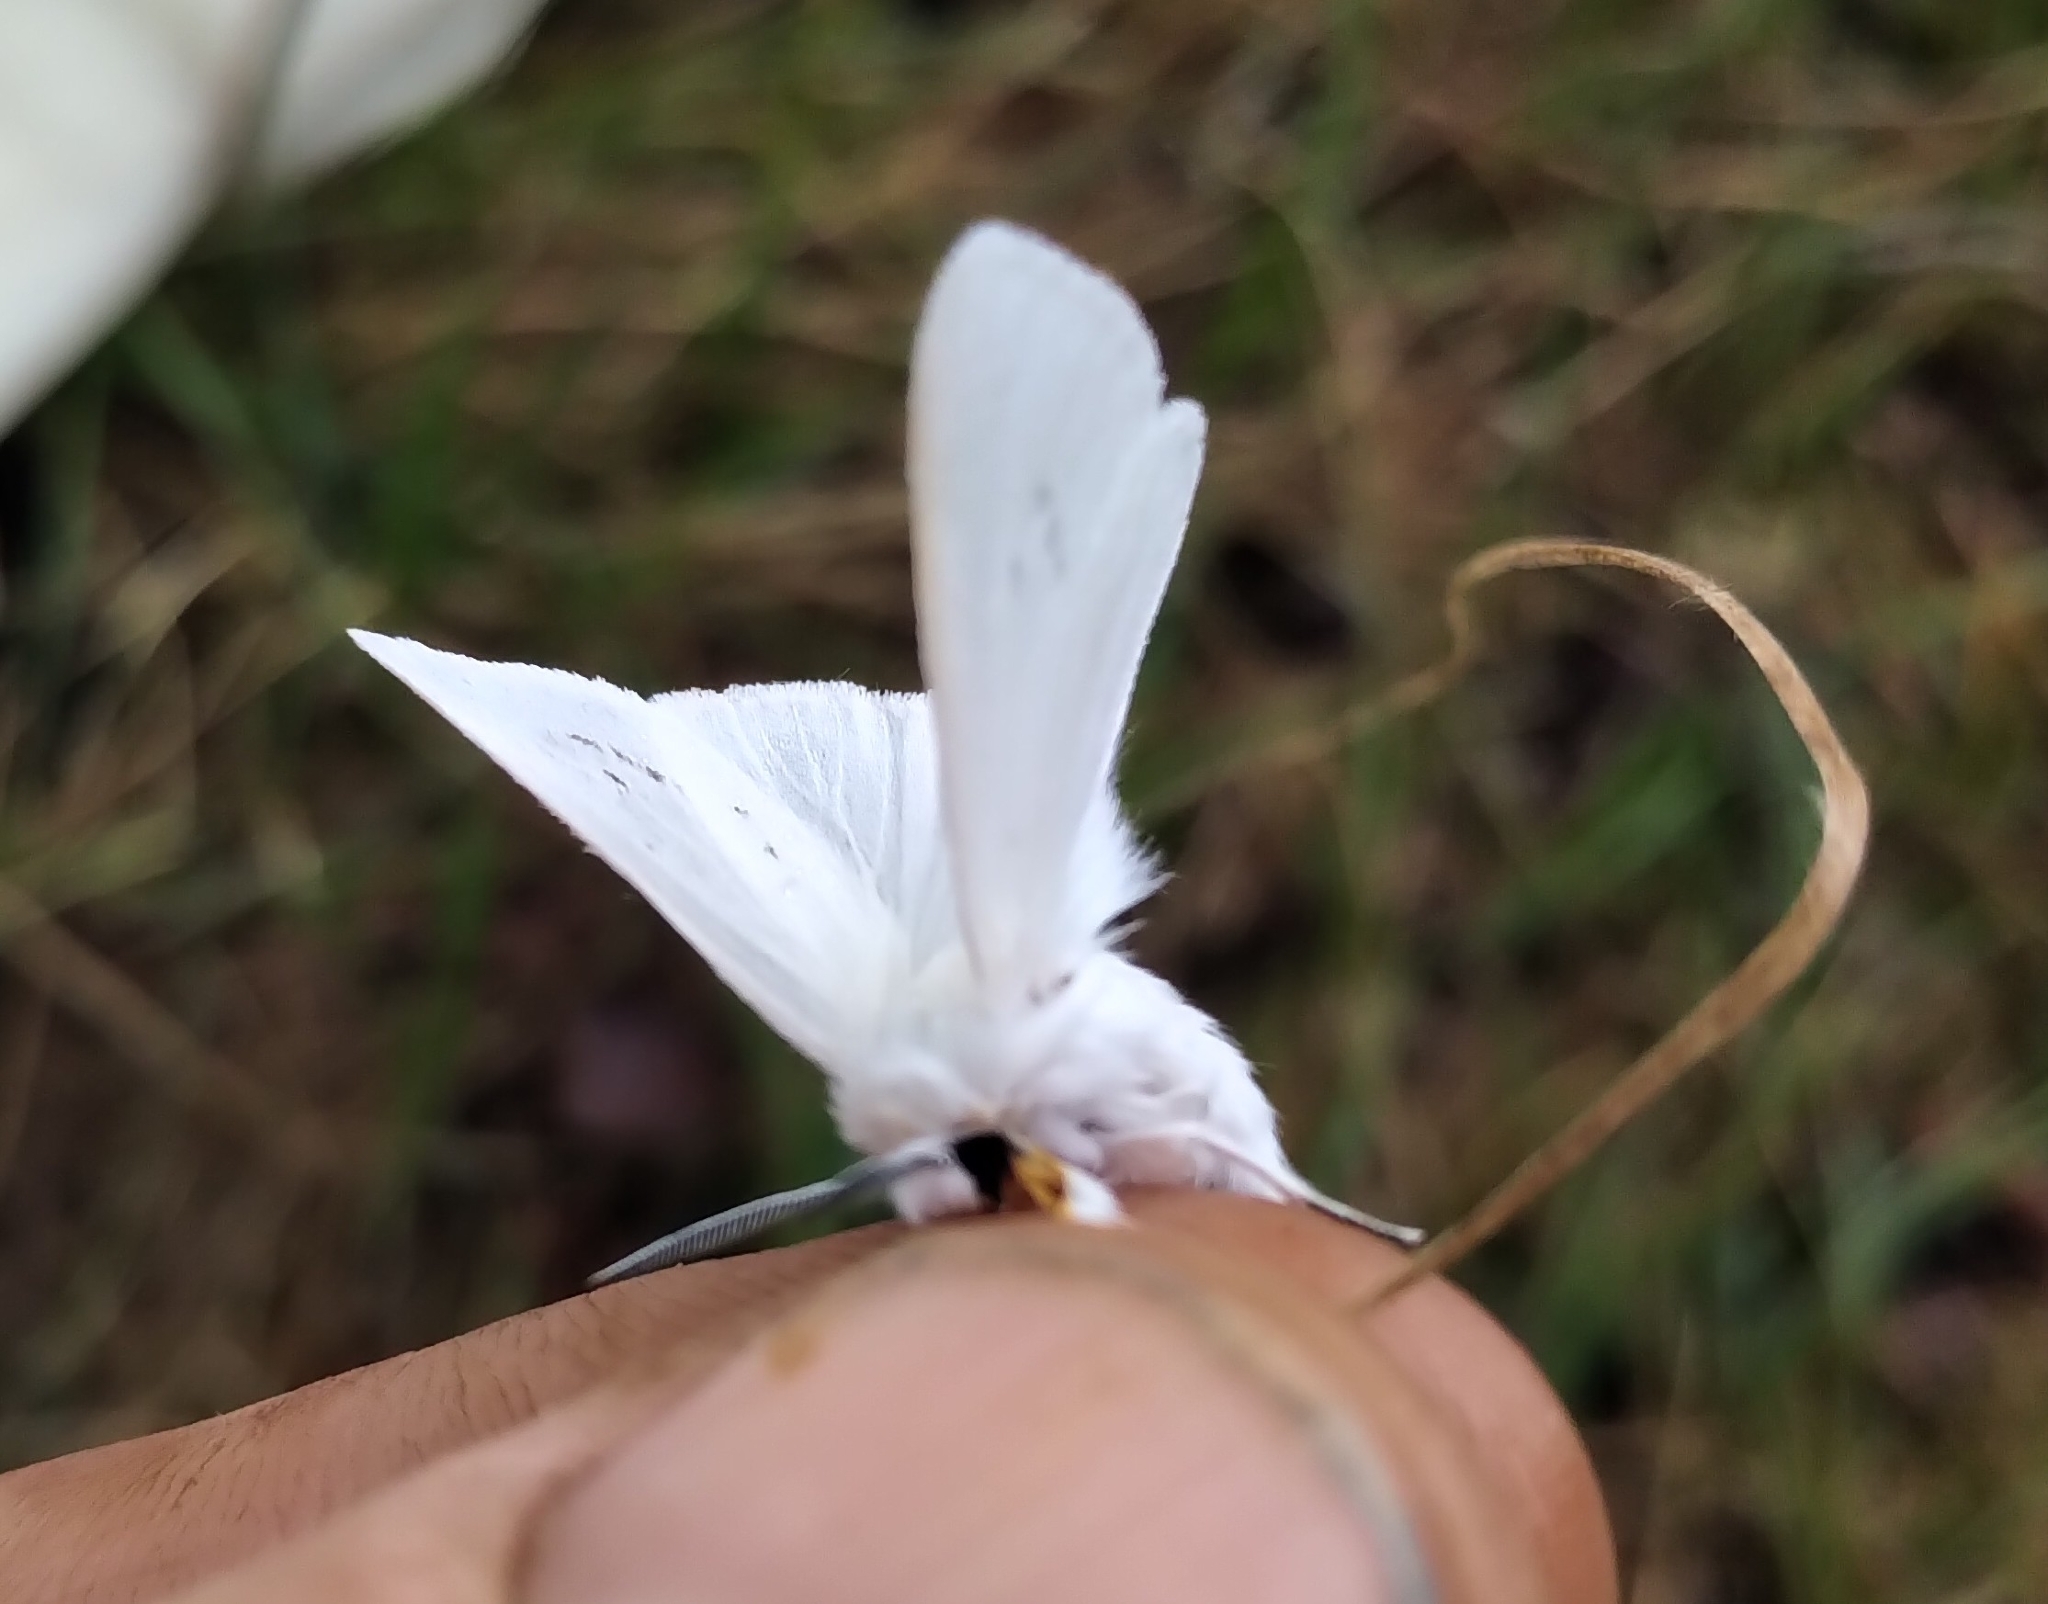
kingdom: Animalia
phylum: Arthropoda
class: Insecta
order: Lepidoptera
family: Erebidae
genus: Spilosoma
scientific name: Spilosoma congrua
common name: Agreeable tiger moth
